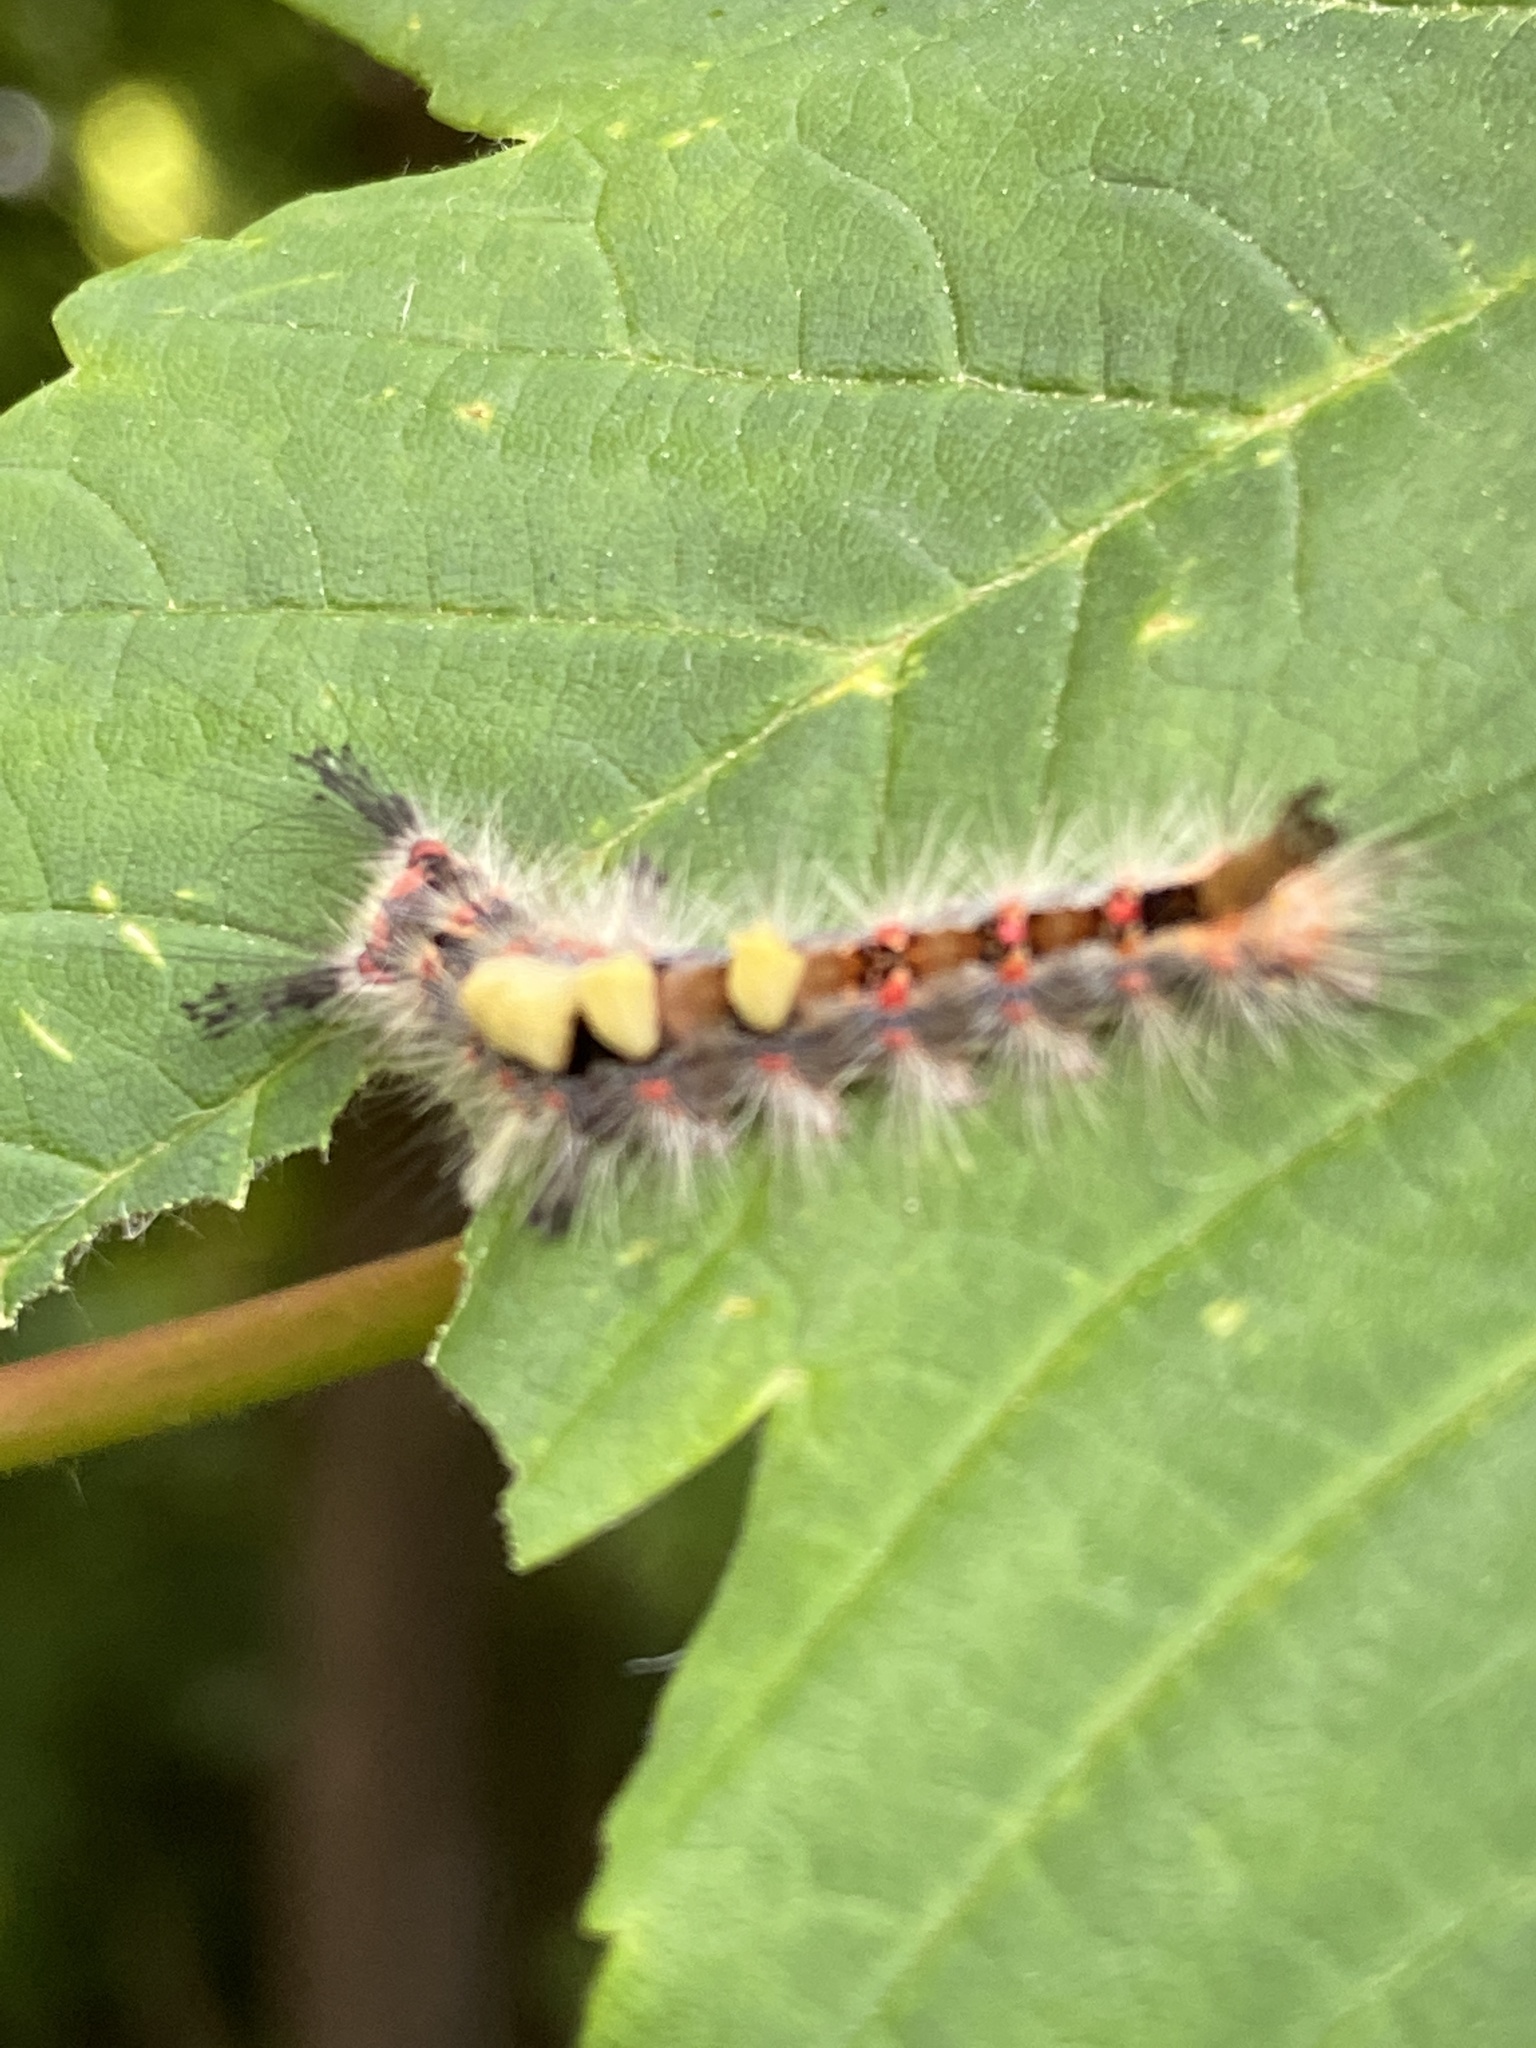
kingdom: Animalia
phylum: Arthropoda
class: Insecta
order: Lepidoptera
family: Erebidae
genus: Orgyia
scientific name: Orgyia antiqua
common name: Vapourer
